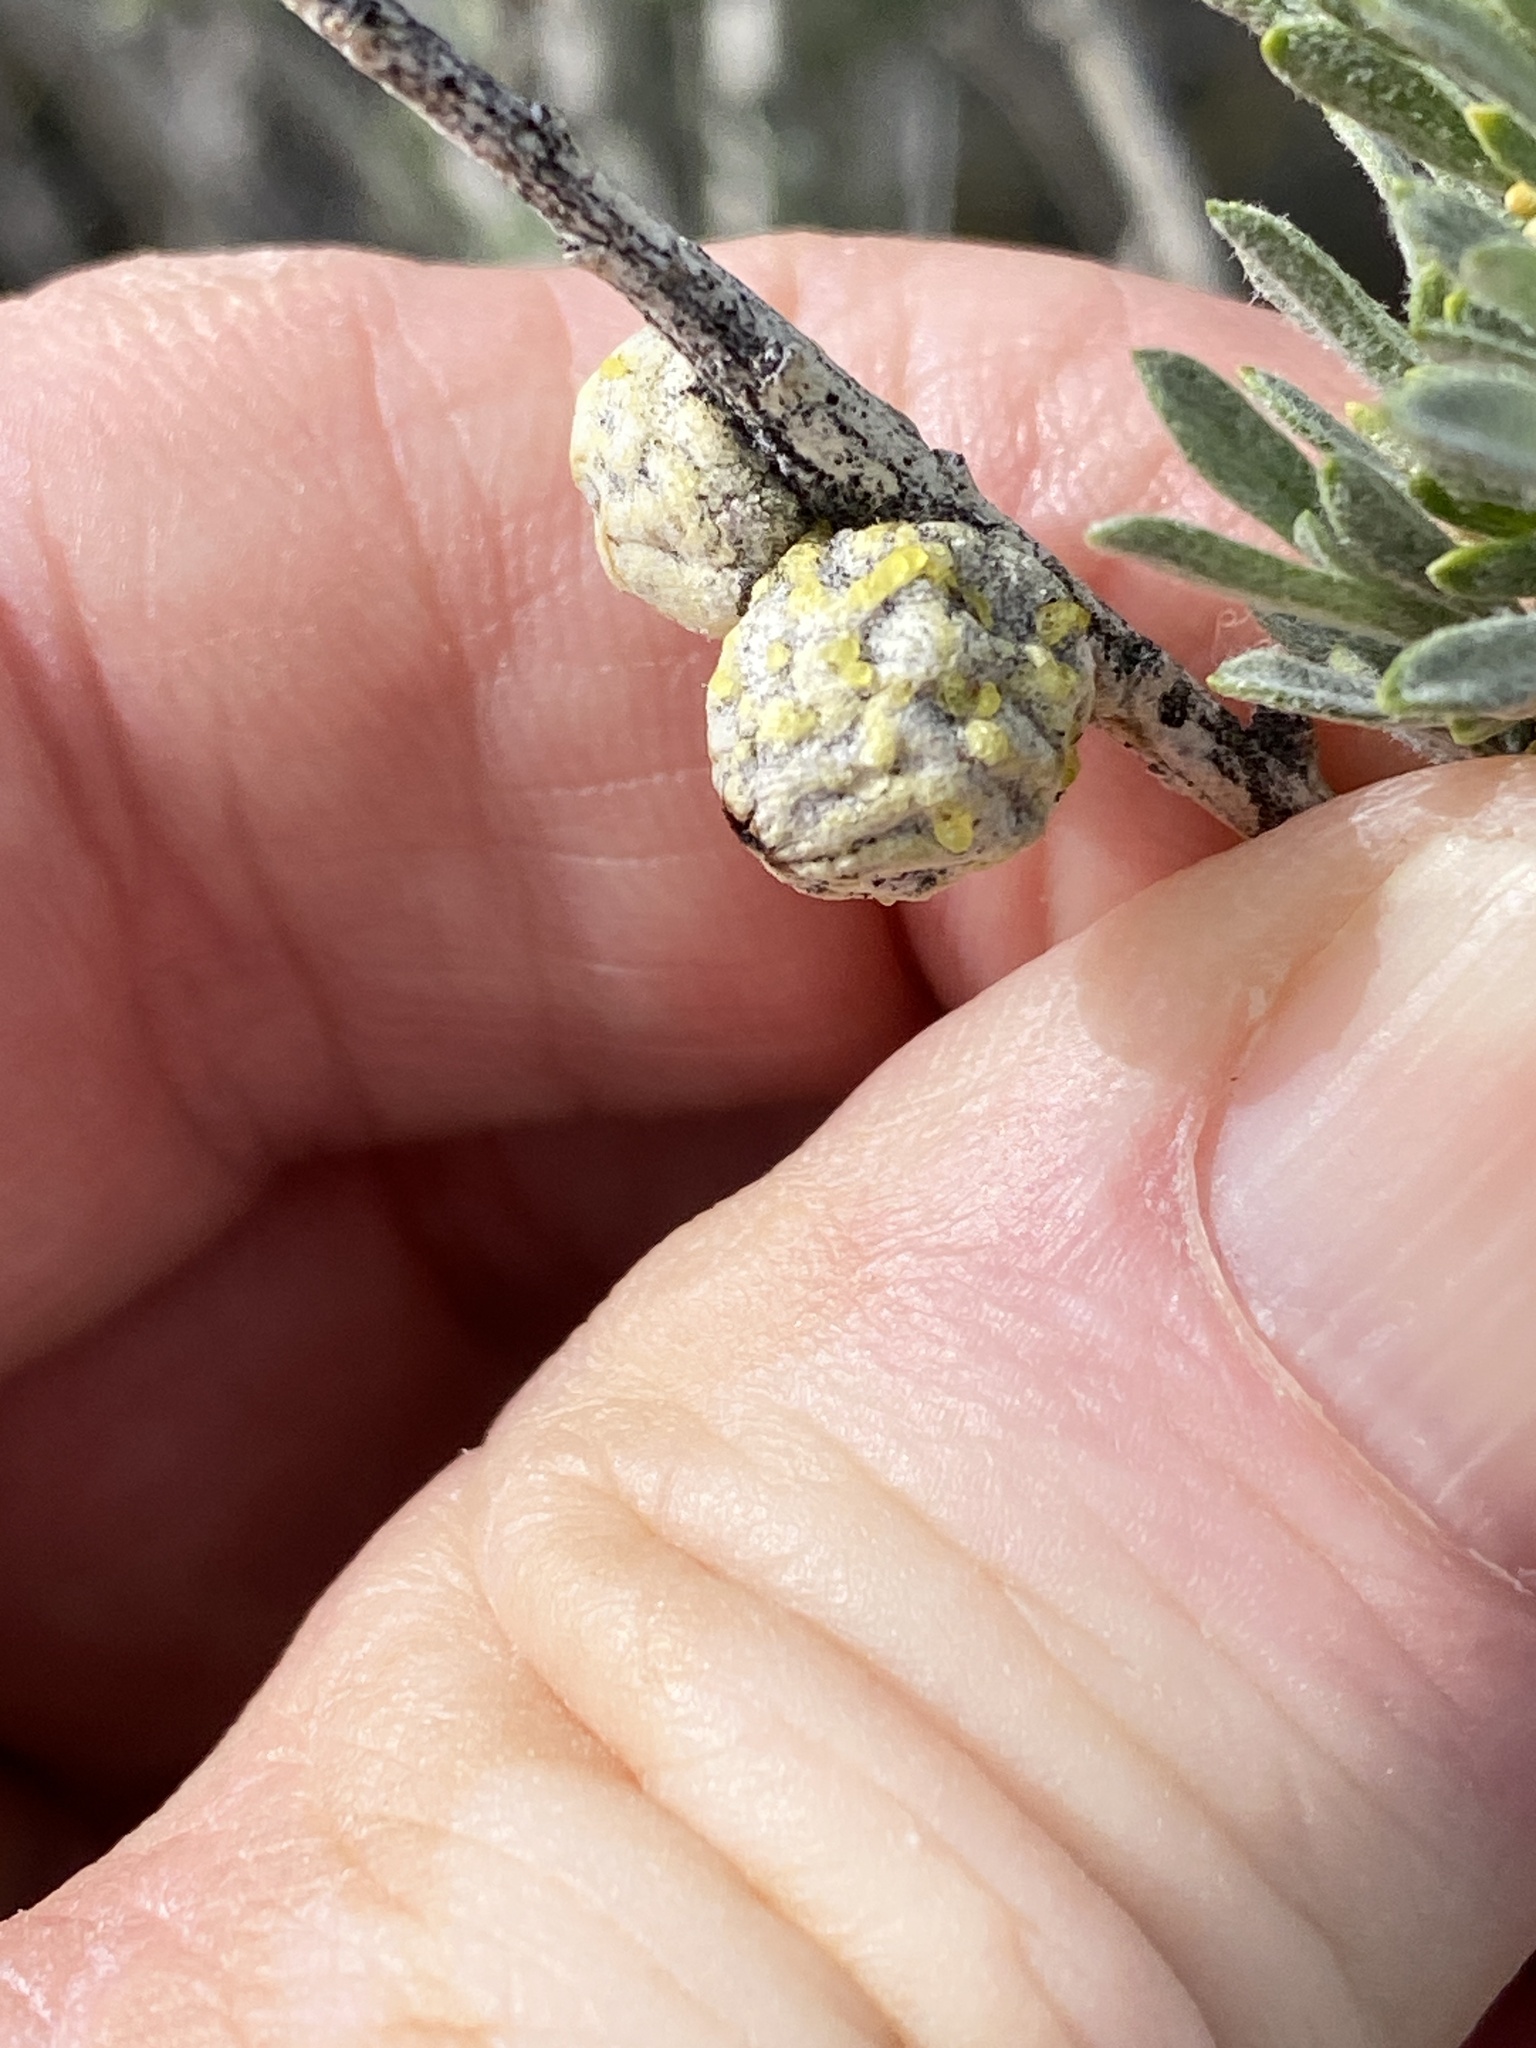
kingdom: Animalia
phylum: Arthropoda
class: Insecta
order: Diptera
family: Tephritidae
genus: Aciurina
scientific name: Aciurina trixa
